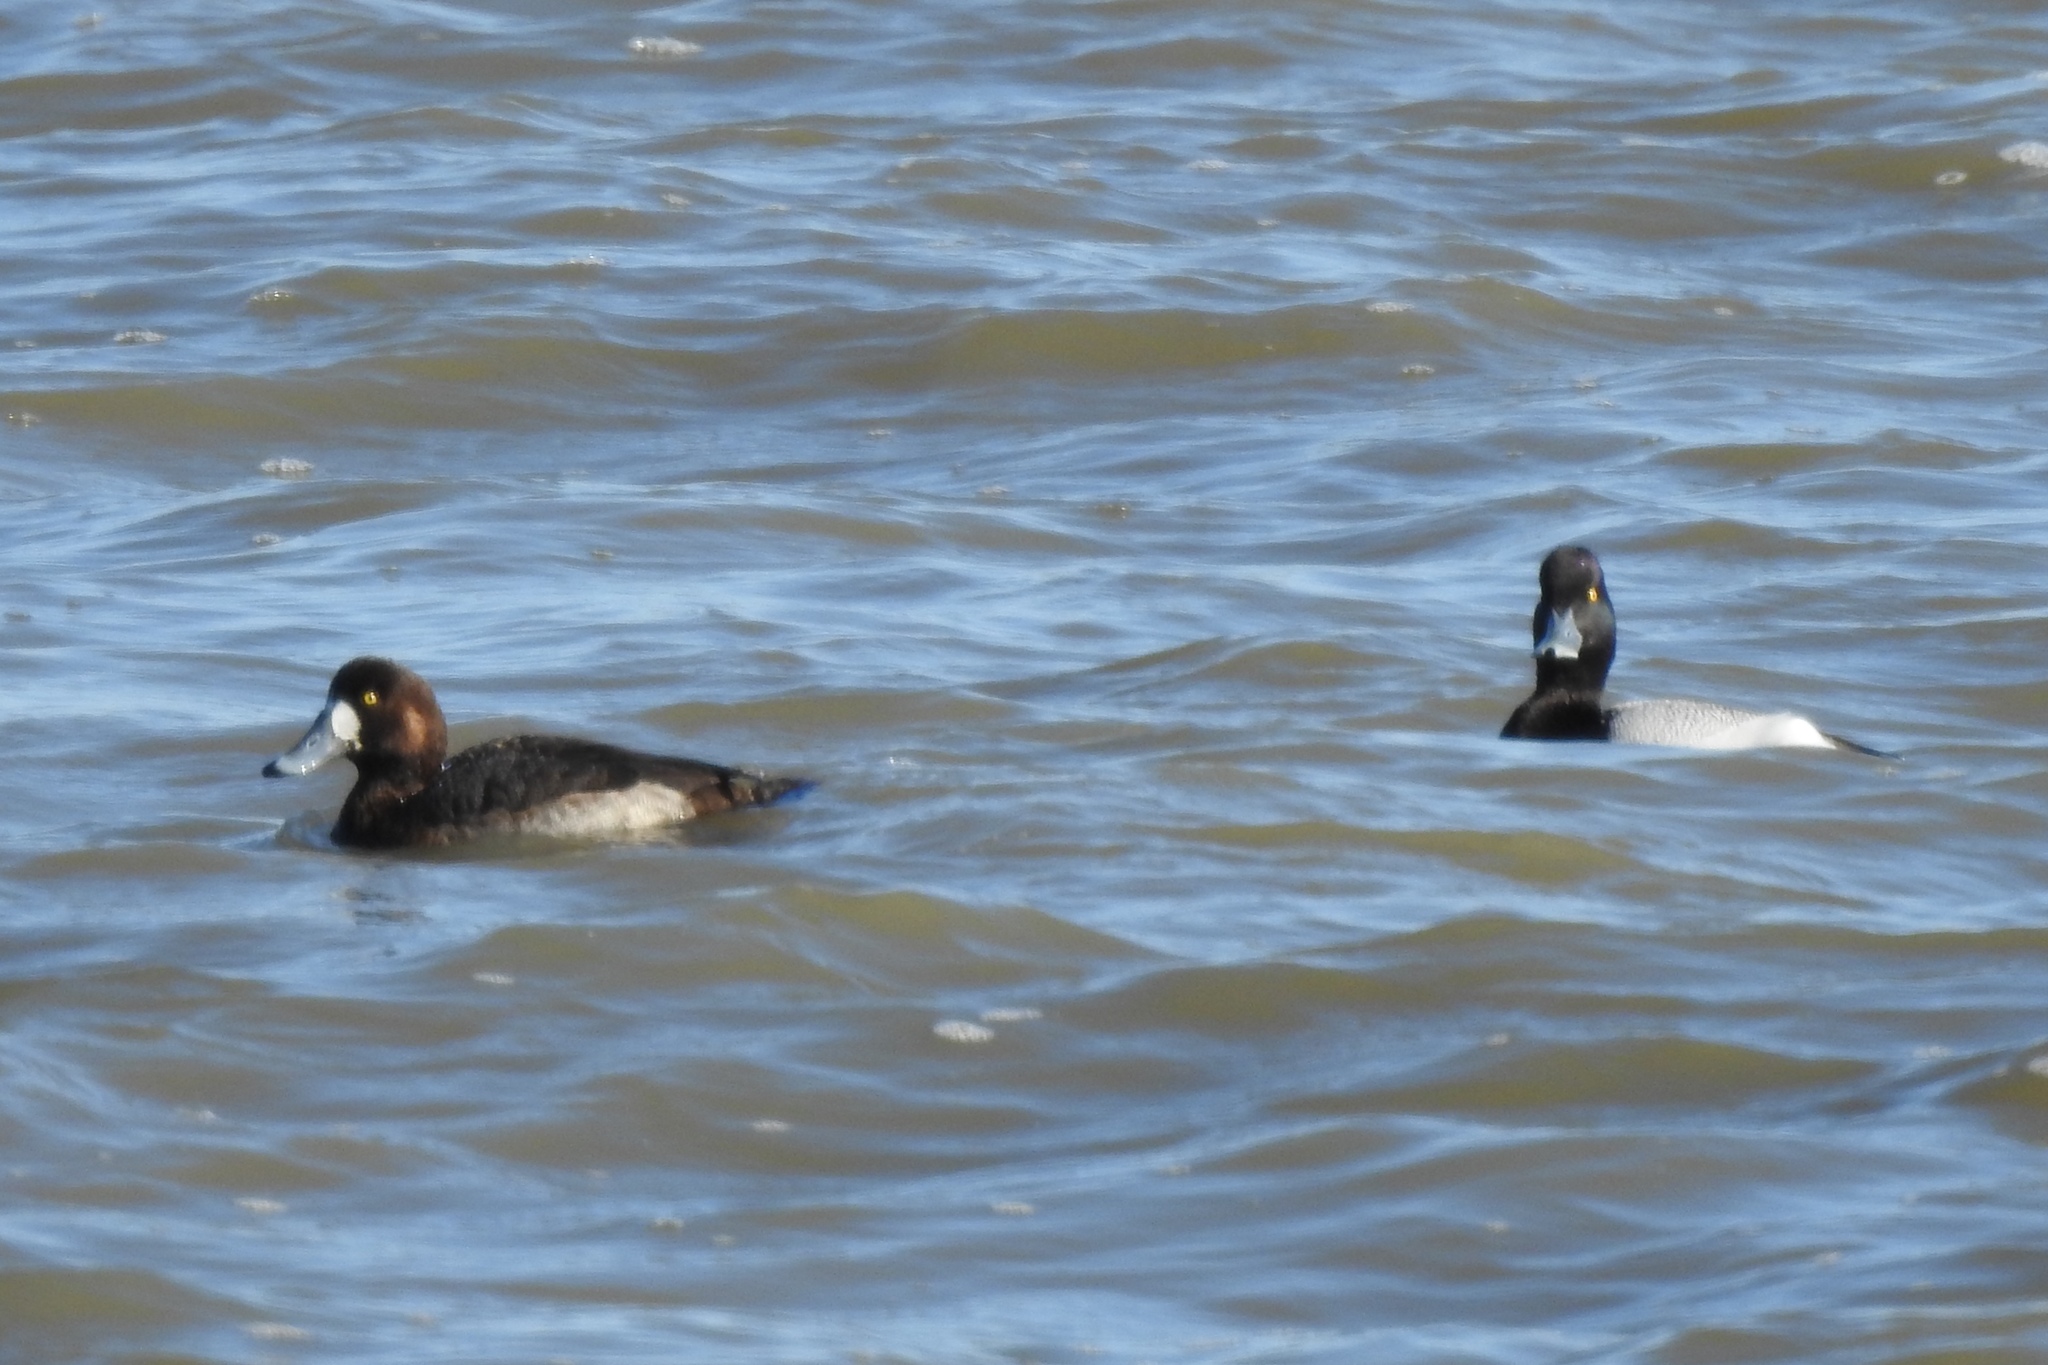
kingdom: Animalia
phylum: Chordata
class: Aves
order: Anseriformes
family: Anatidae
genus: Aythya
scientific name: Aythya marila
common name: Greater scaup
